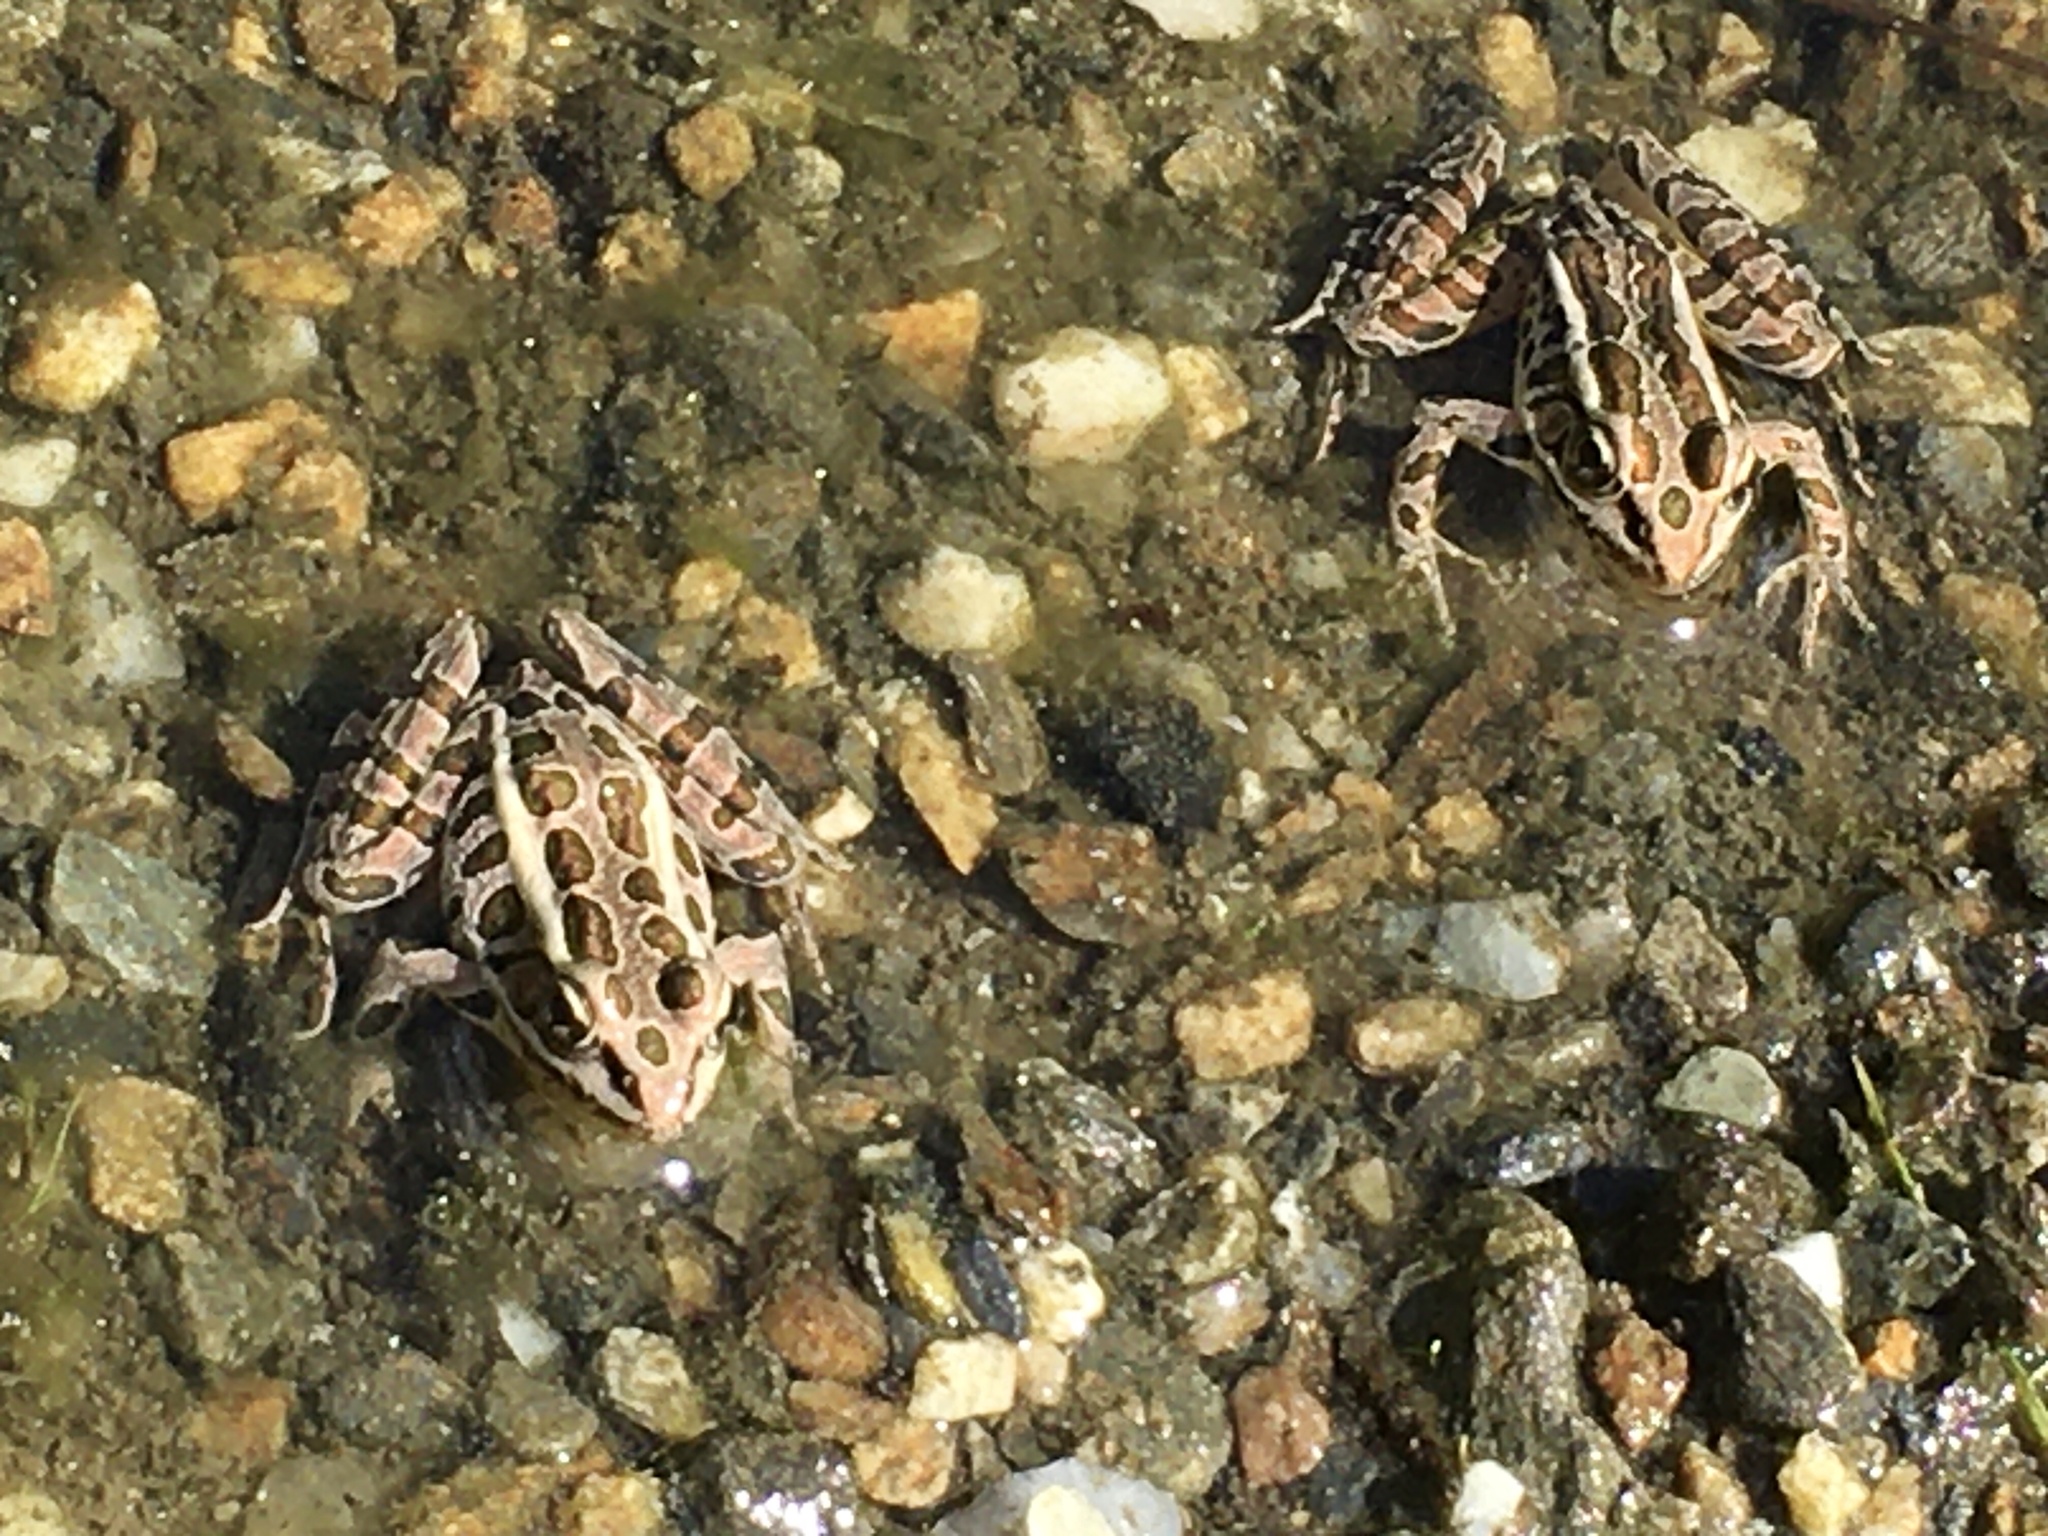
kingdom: Animalia
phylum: Chordata
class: Amphibia
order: Anura
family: Ranidae
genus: Lithobates
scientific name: Lithobates palustris
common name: Pickerel frog
